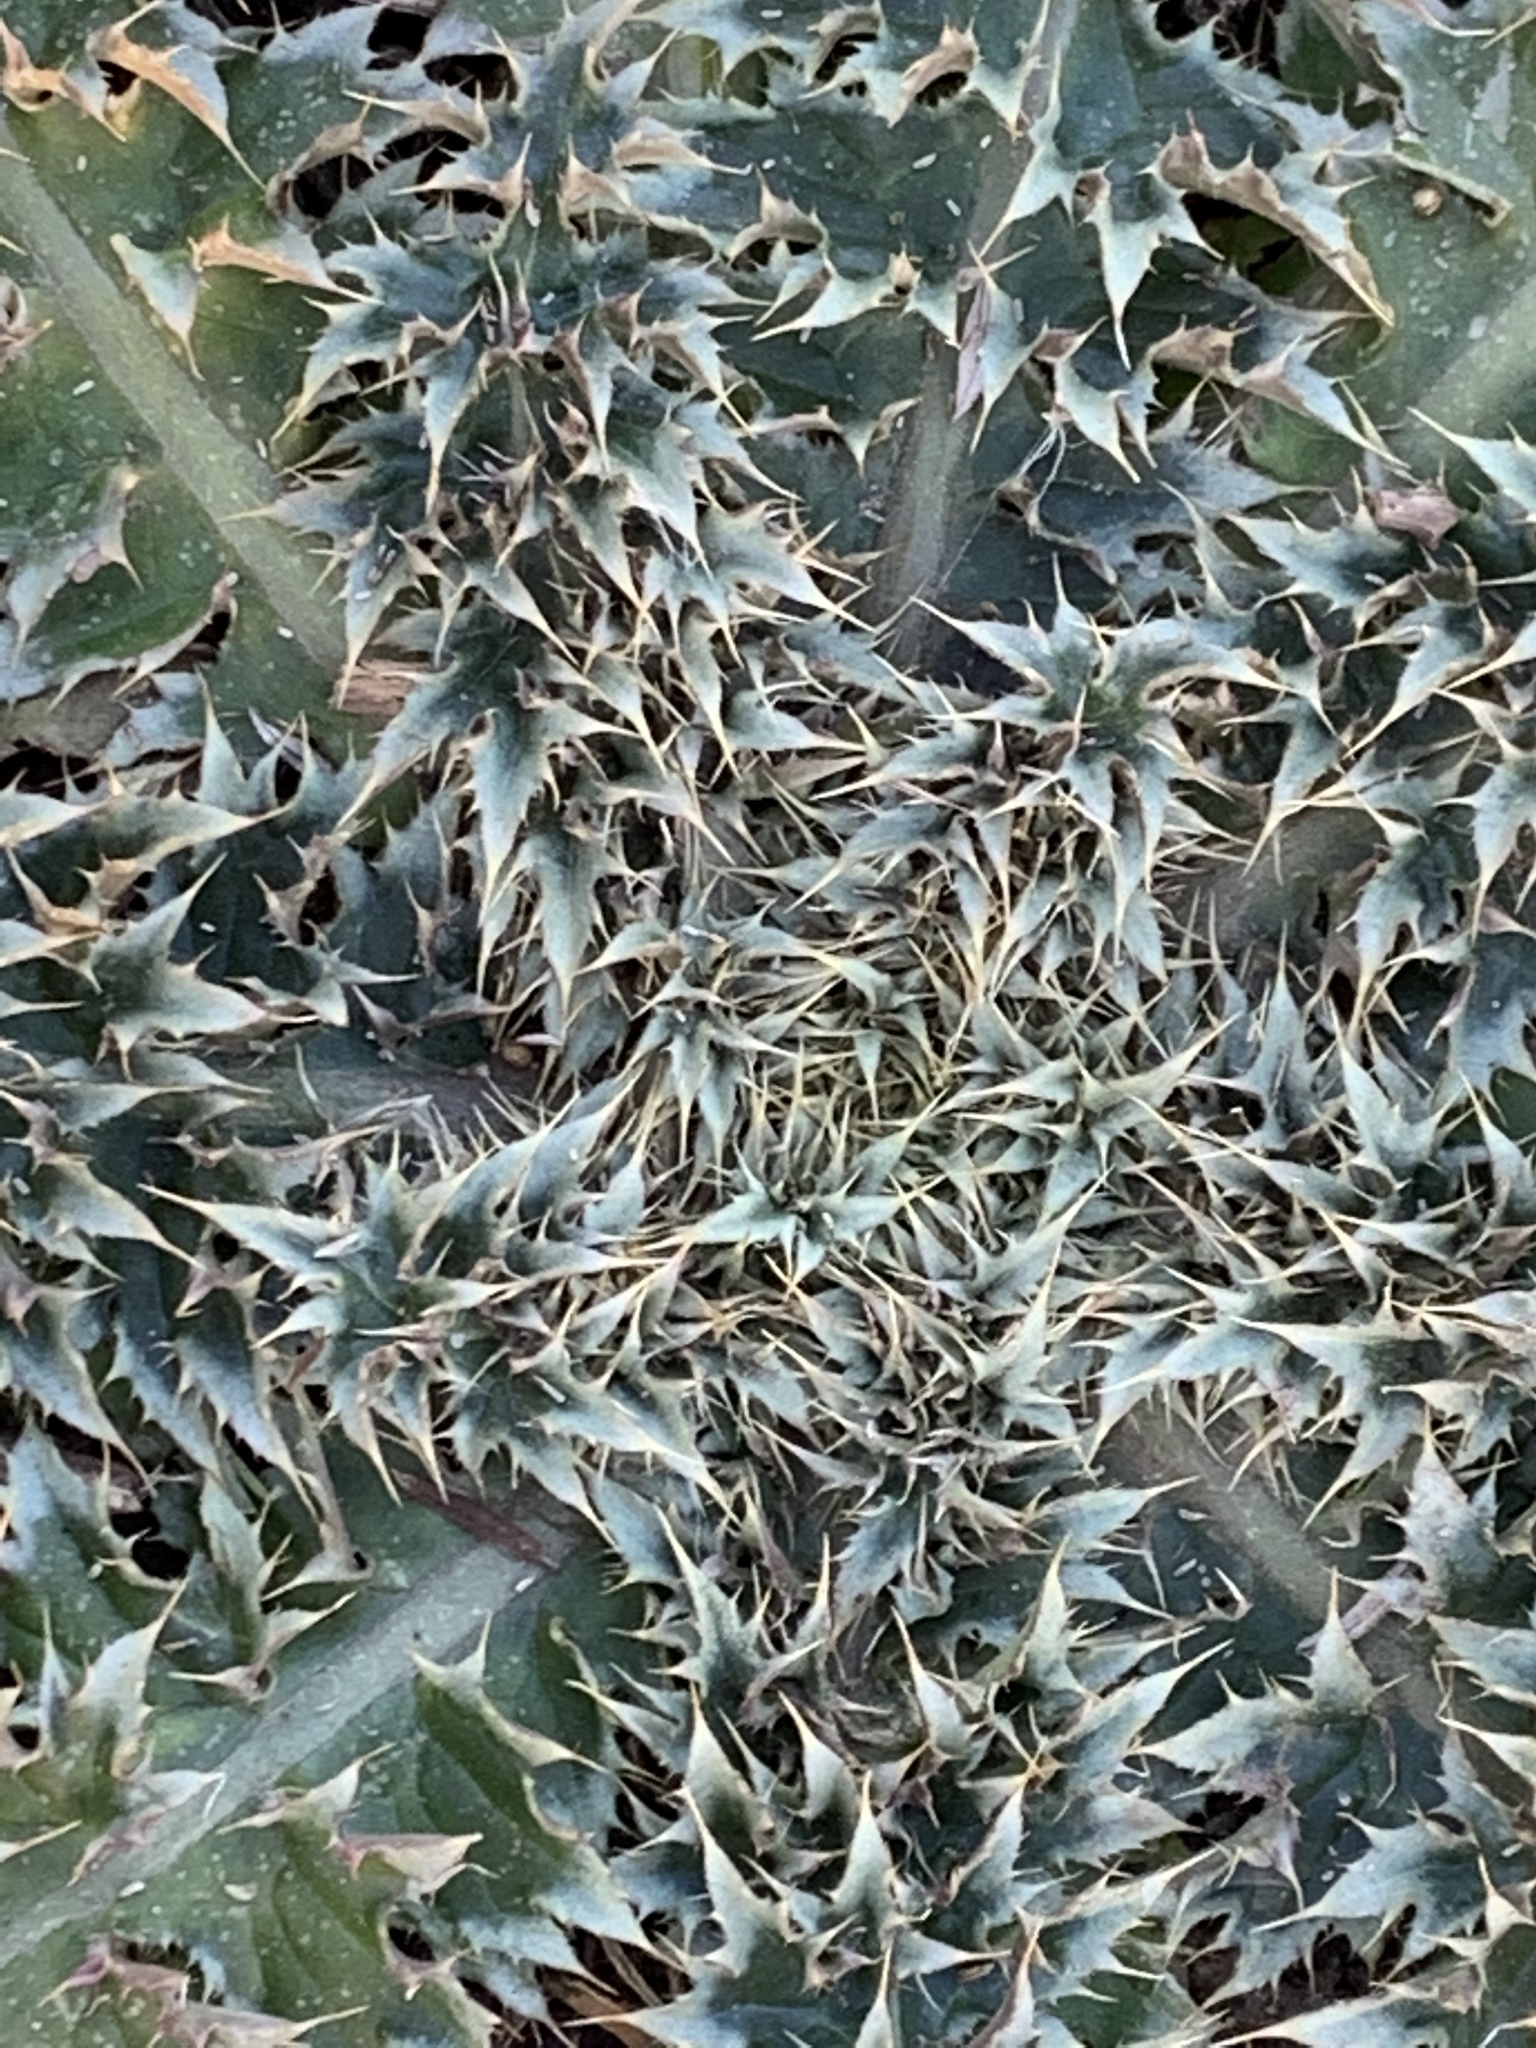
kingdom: Plantae
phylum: Tracheophyta
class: Magnoliopsida
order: Asterales
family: Asteraceae
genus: Carduus
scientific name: Carduus nutans
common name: Musk thistle
